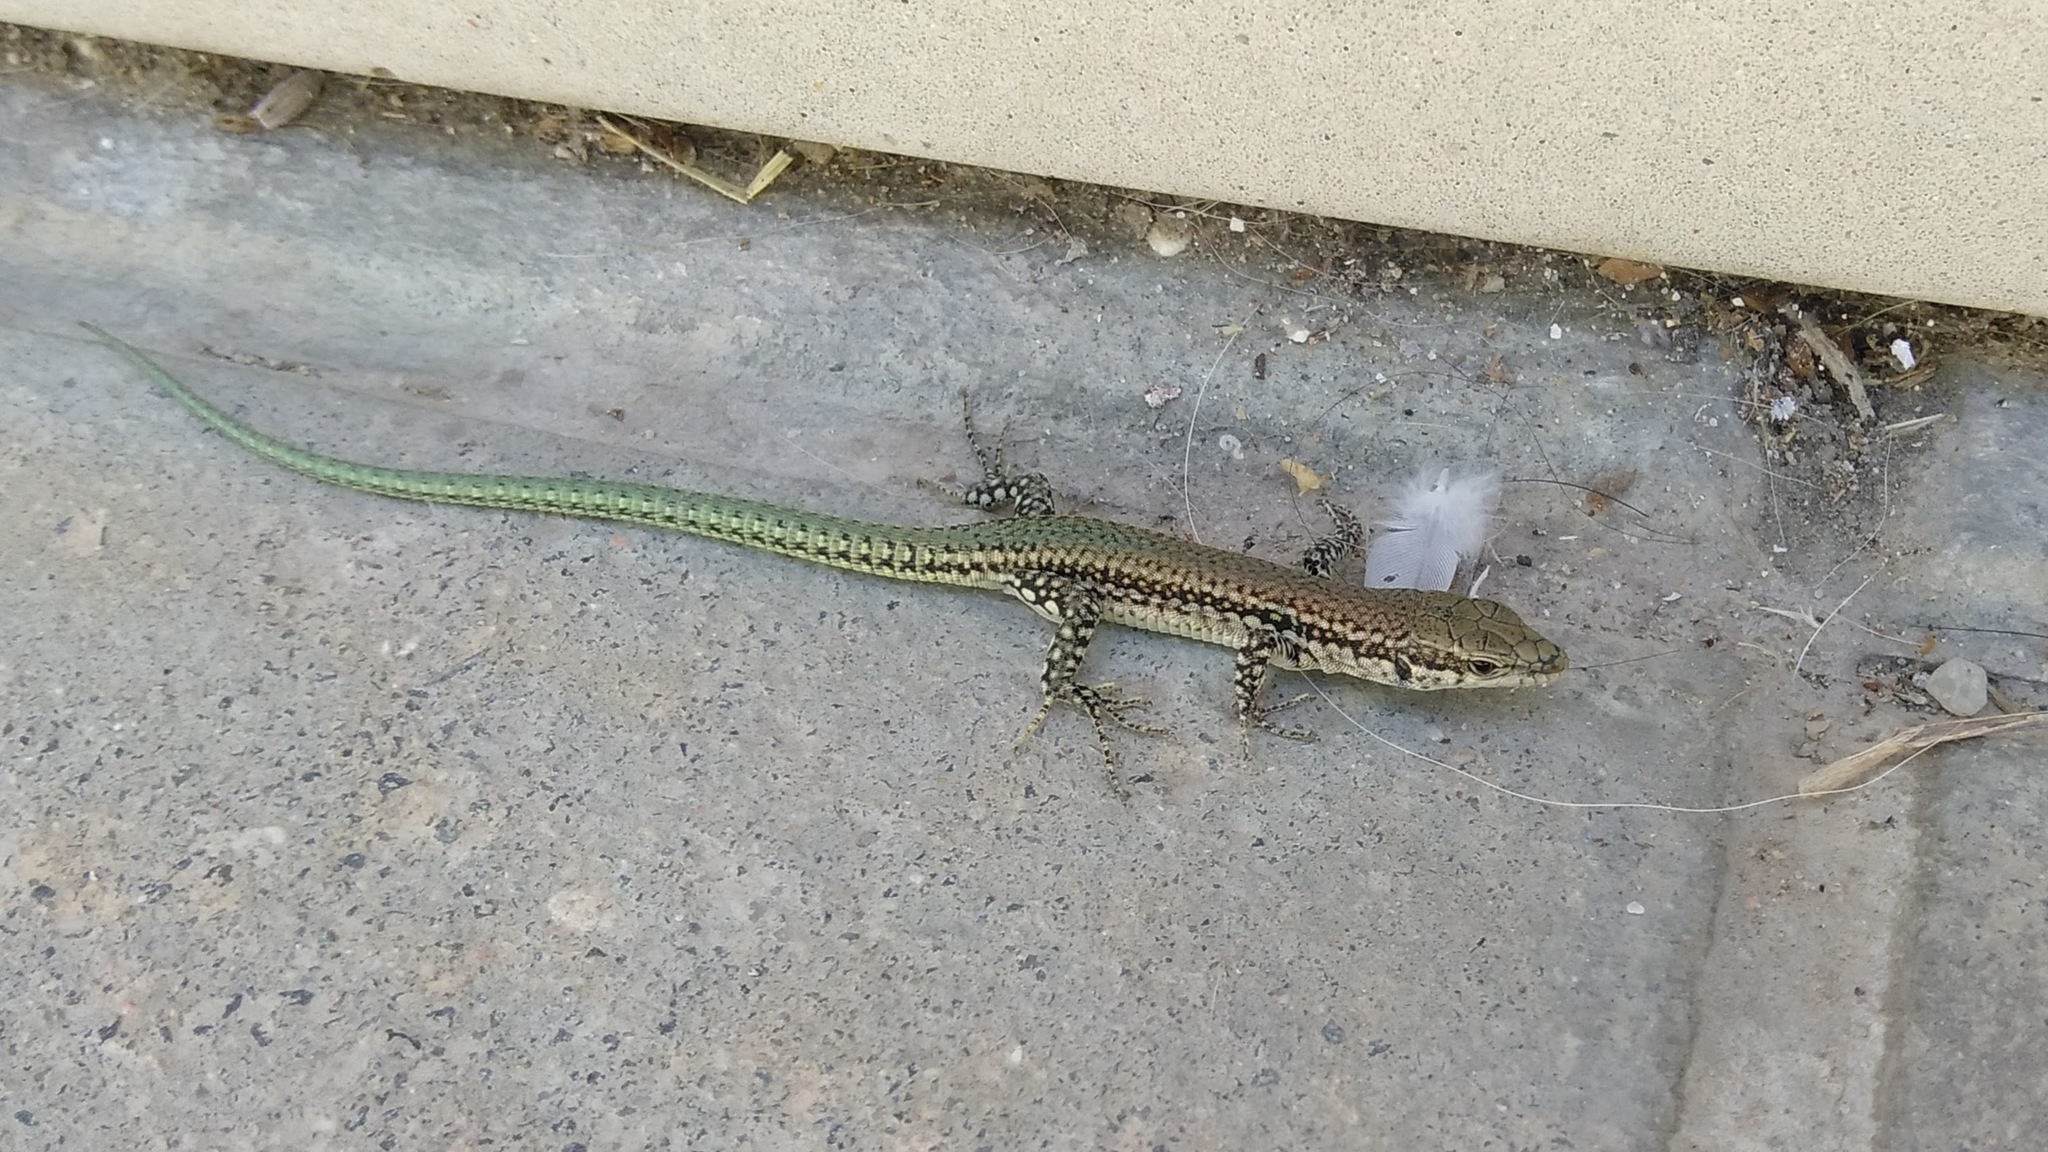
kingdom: Animalia
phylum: Chordata
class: Squamata
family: Lacertidae
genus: Podarcis
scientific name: Podarcis virescens
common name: Geniez’s wall lizard
